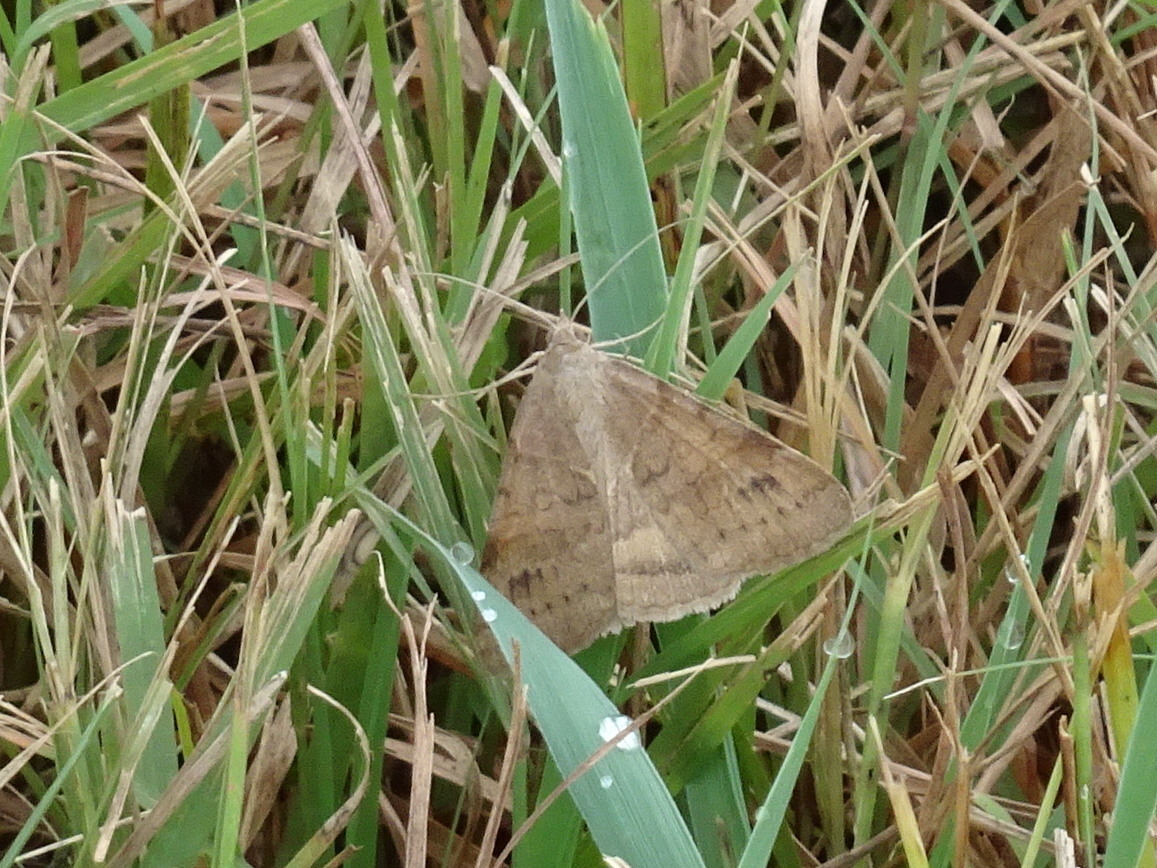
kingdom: Animalia
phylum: Arthropoda
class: Insecta
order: Lepidoptera
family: Erebidae
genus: Caenurgina
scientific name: Caenurgina erechtea
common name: Forage looper moth
